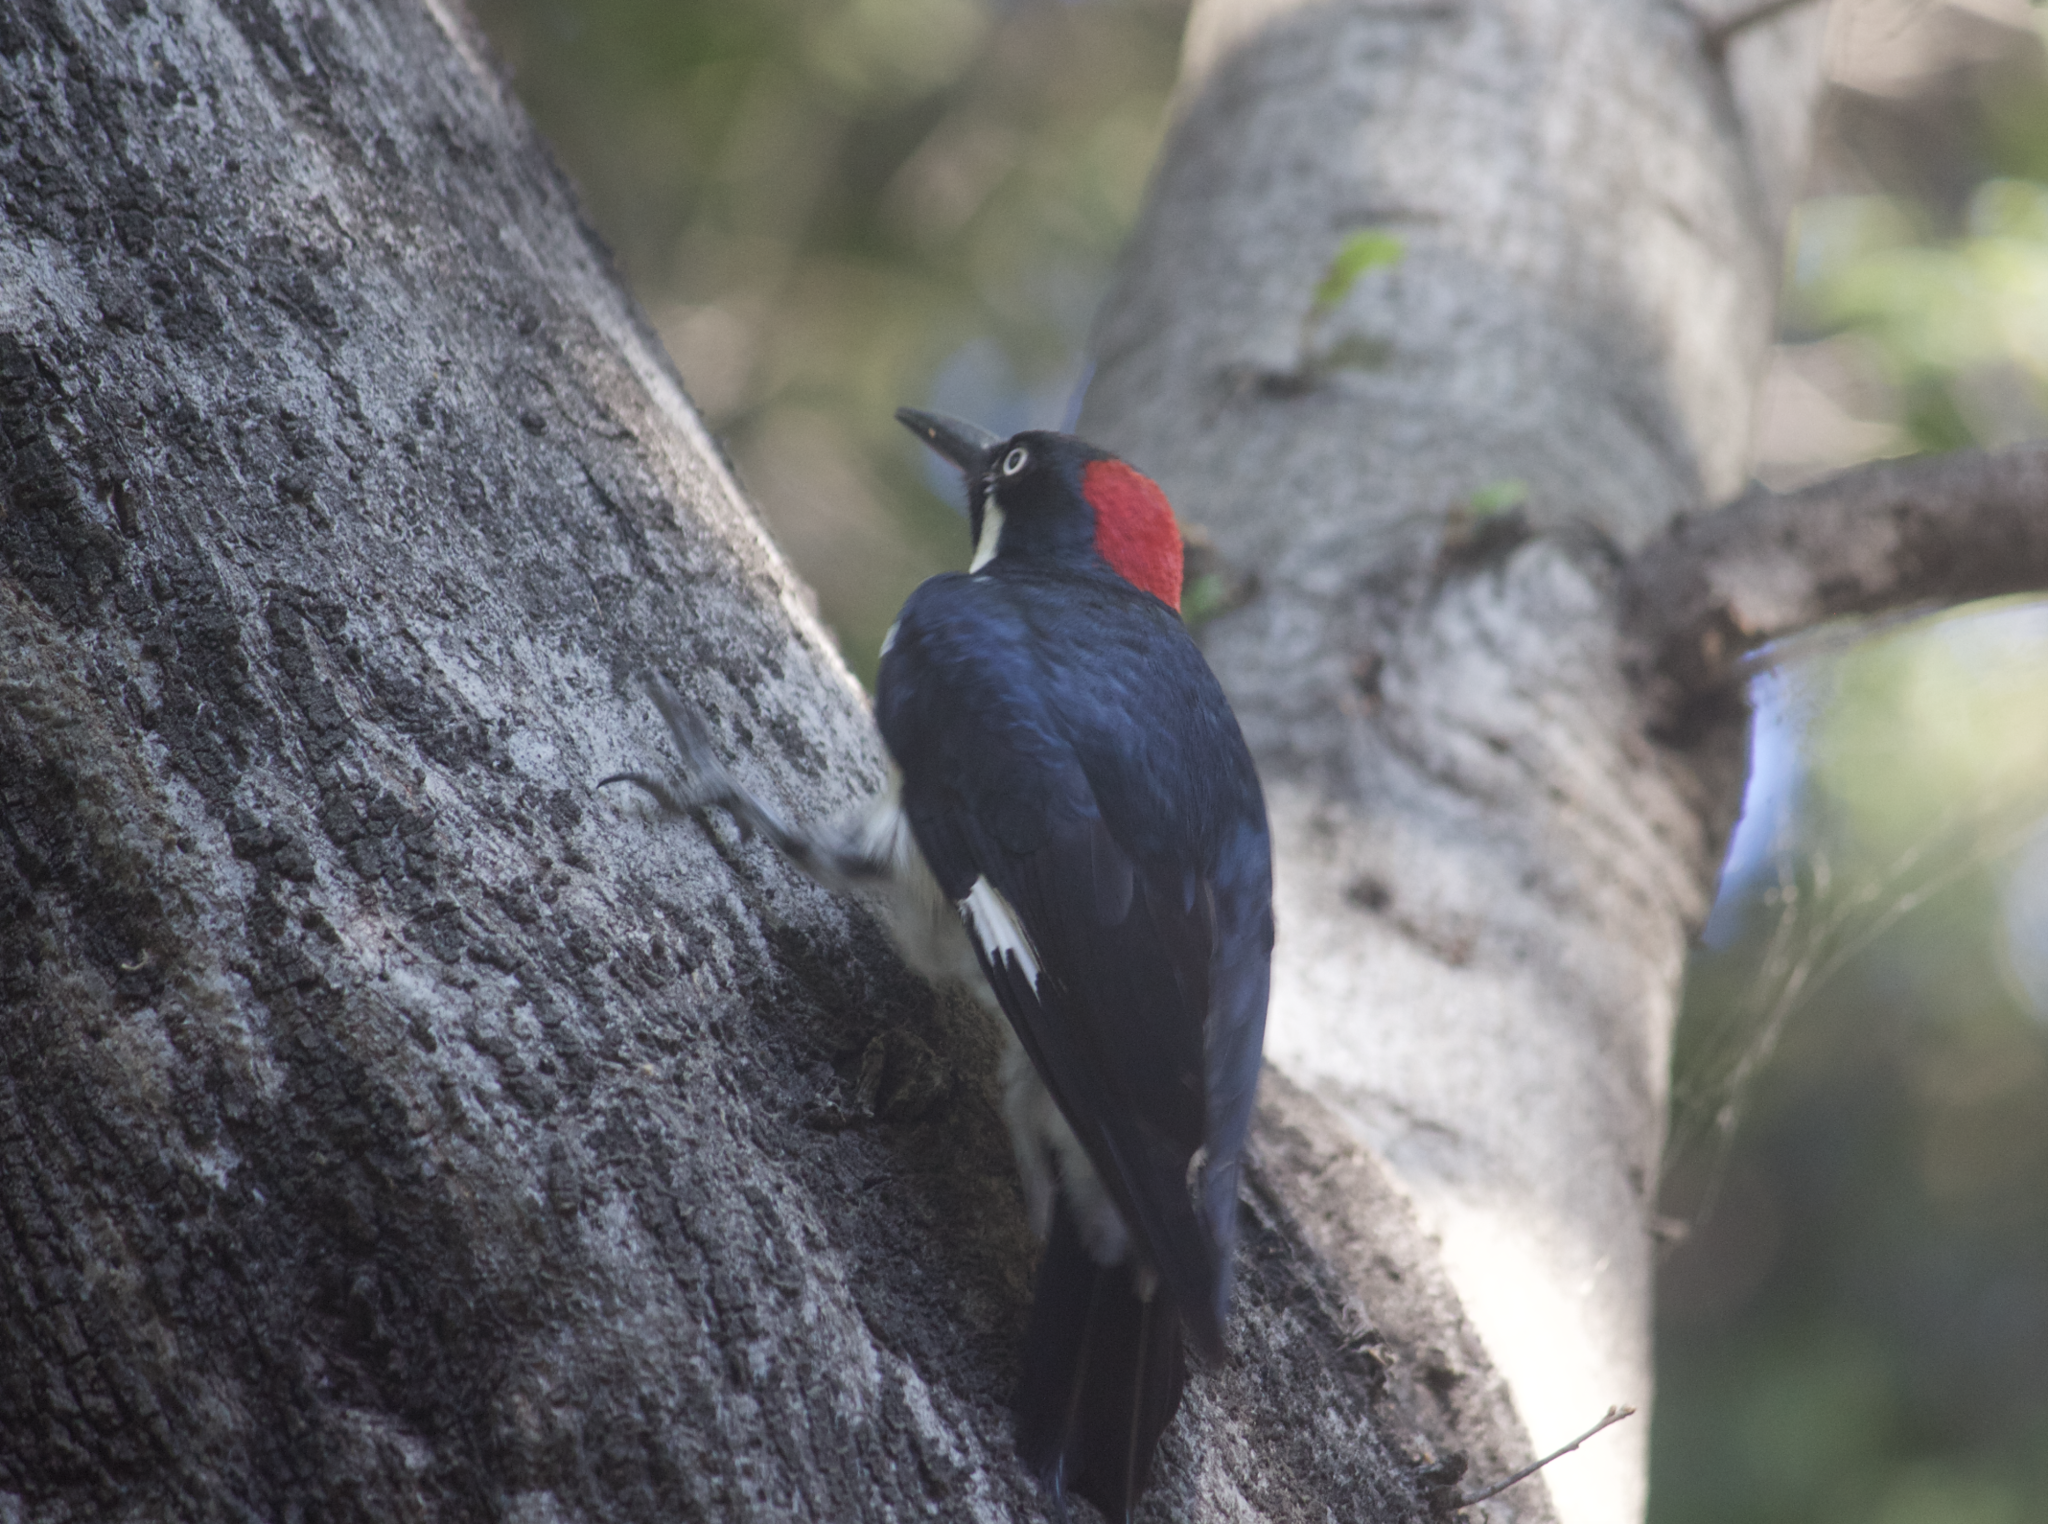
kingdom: Animalia
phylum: Chordata
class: Aves
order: Piciformes
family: Picidae
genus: Melanerpes
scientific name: Melanerpes formicivorus
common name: Acorn woodpecker
